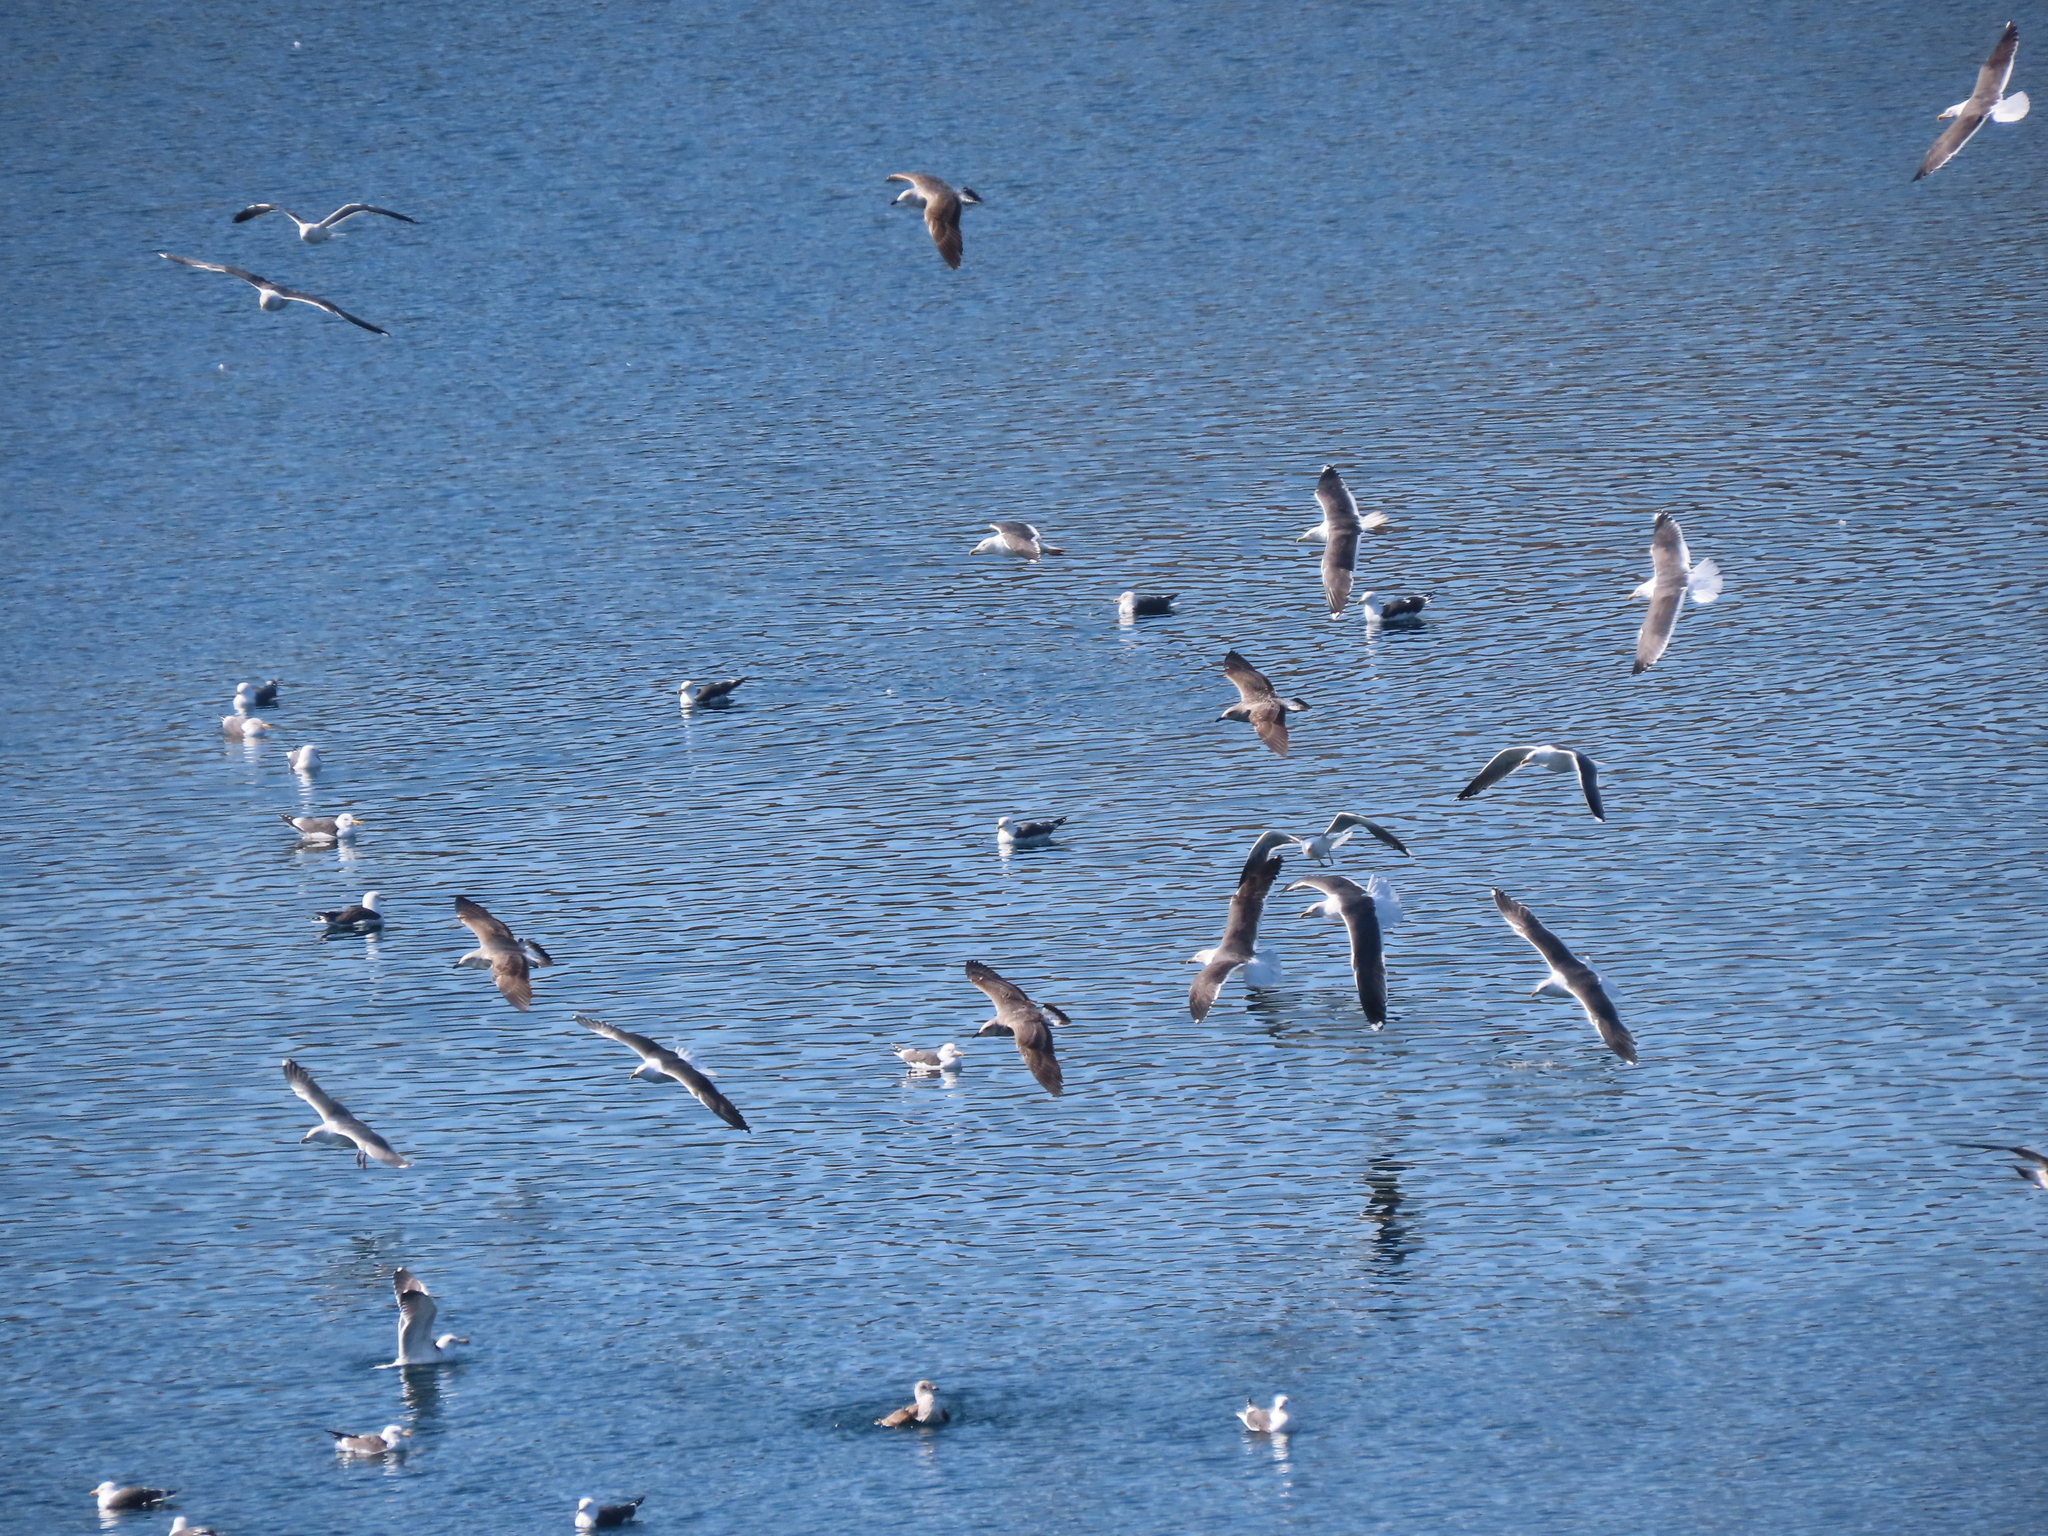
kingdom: Animalia
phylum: Chordata
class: Aves
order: Charadriiformes
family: Laridae
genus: Larus
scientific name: Larus fuscus
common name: Lesser black-backed gull
